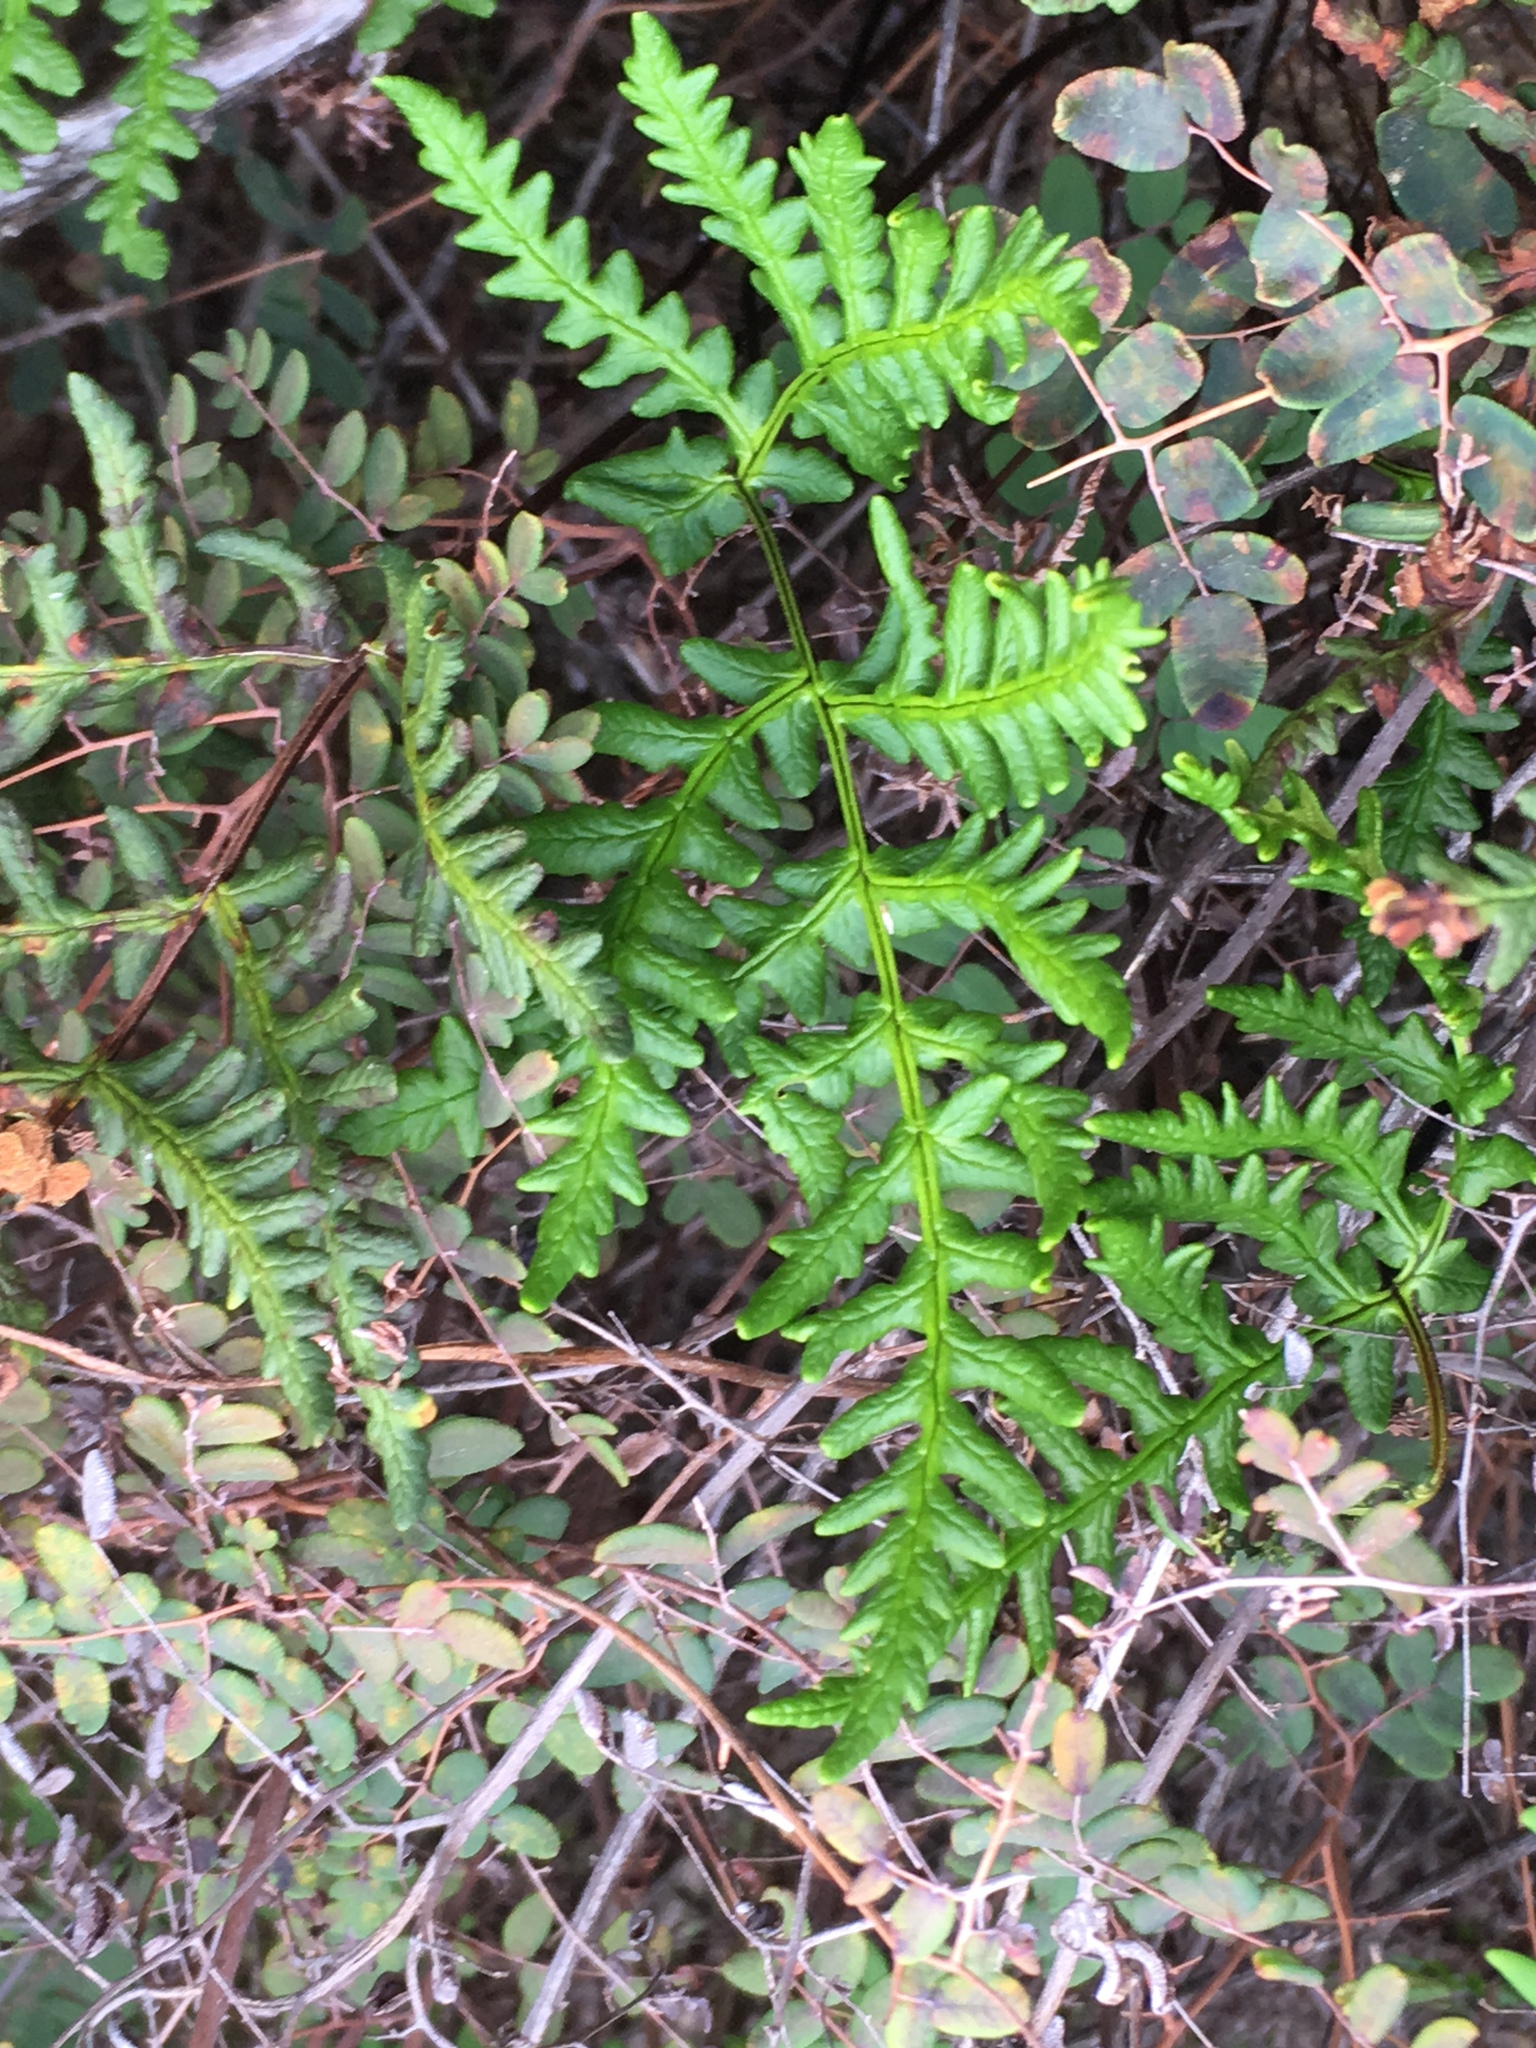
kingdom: Plantae
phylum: Tracheophyta
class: Polypodiopsida
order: Polypodiales
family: Pteridaceae
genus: Pentagramma
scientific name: Pentagramma triangularis
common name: Gold fern
